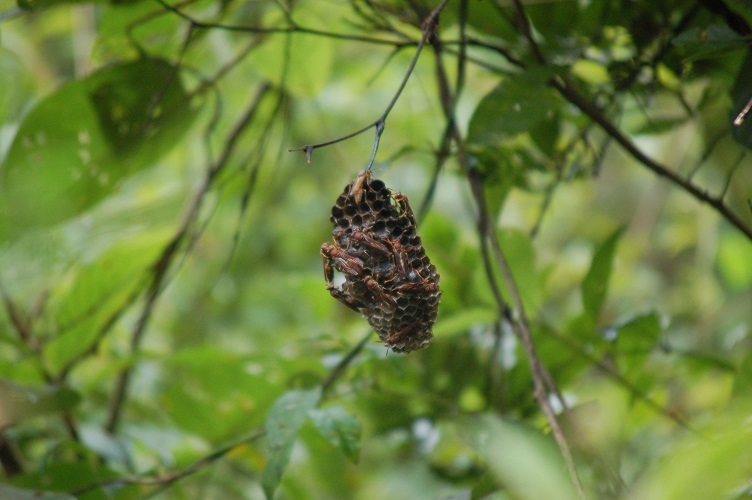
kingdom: Animalia
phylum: Arthropoda
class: Insecta
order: Hymenoptera
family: Eumenidae
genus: Polistes
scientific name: Polistes canadensis
